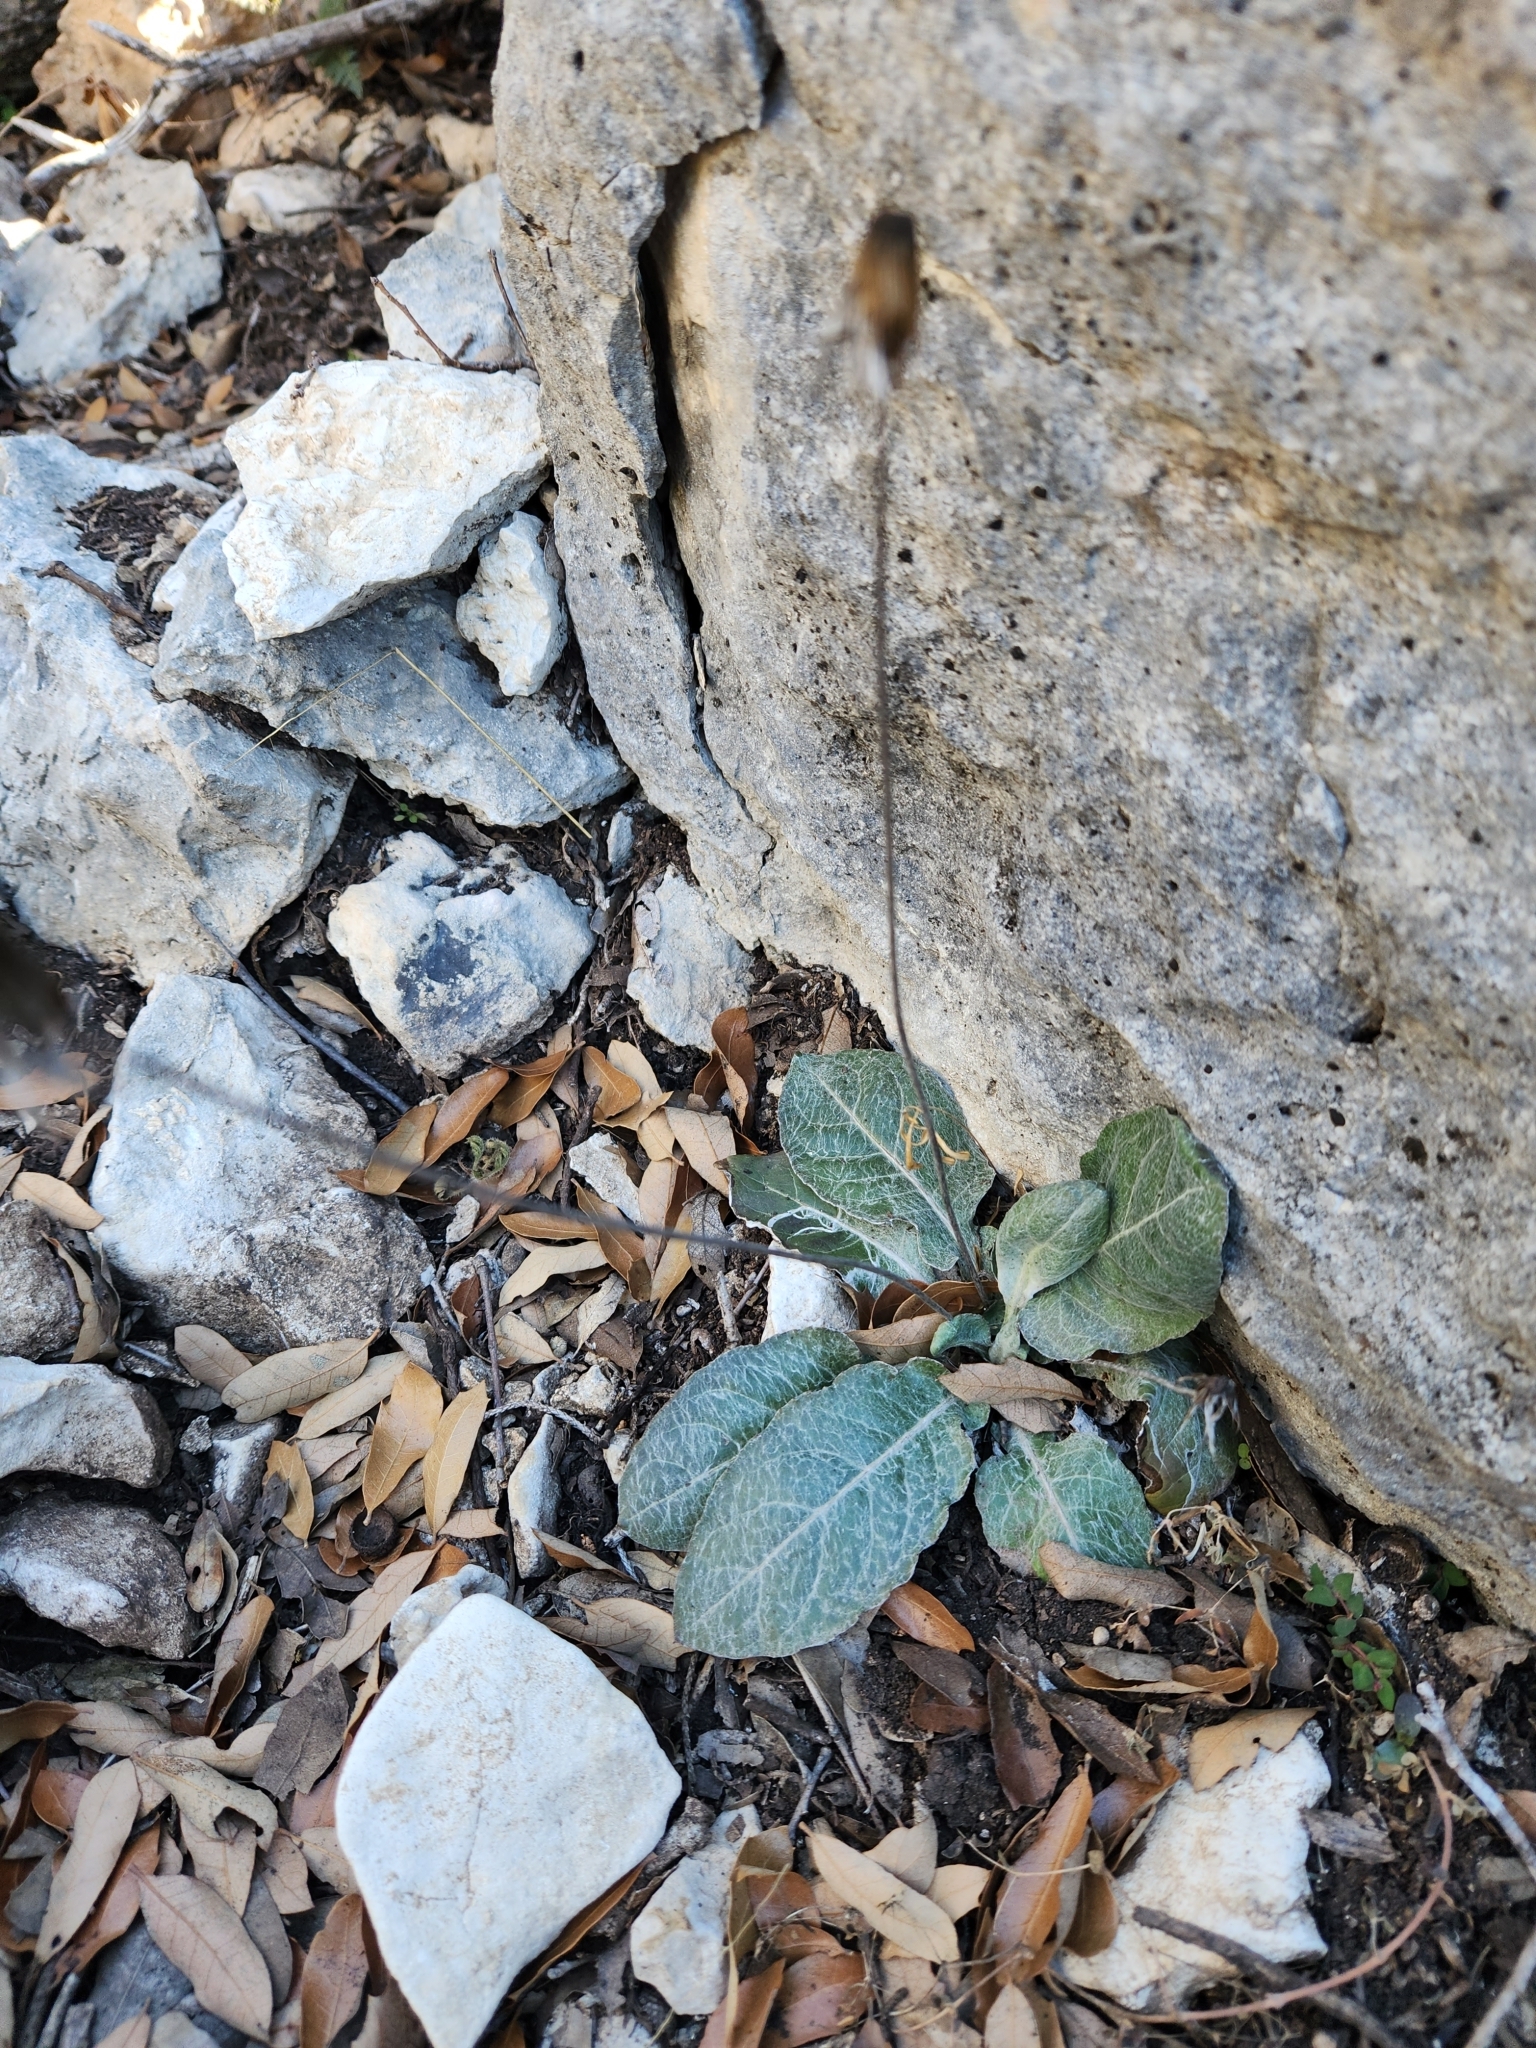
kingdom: Plantae
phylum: Tracheophyta
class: Magnoliopsida
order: Asterales
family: Asteraceae
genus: Chaptalia
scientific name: Chaptalia texana
